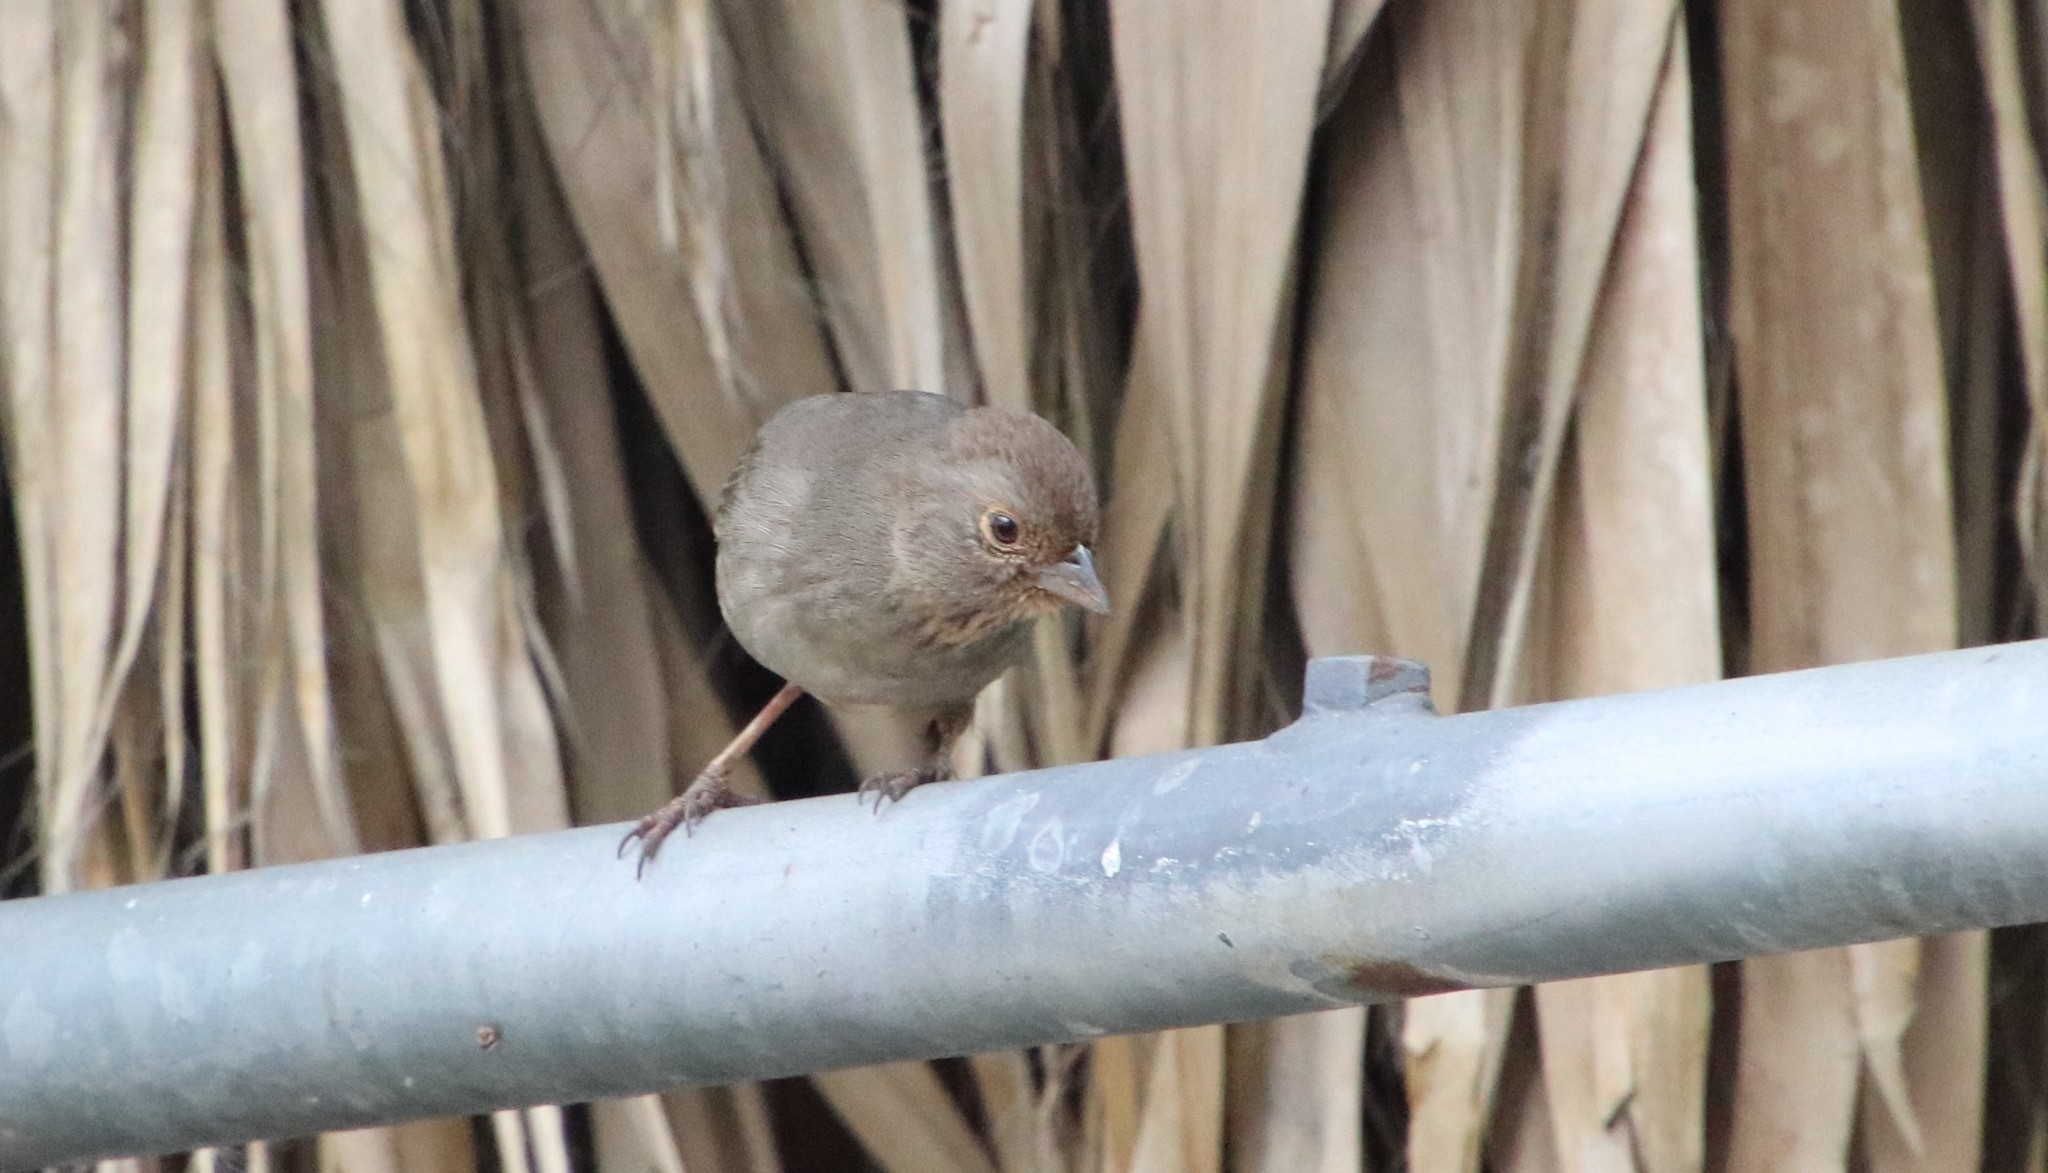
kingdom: Animalia
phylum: Chordata
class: Aves
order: Passeriformes
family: Passerellidae
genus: Melozone
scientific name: Melozone crissalis
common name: California towhee
